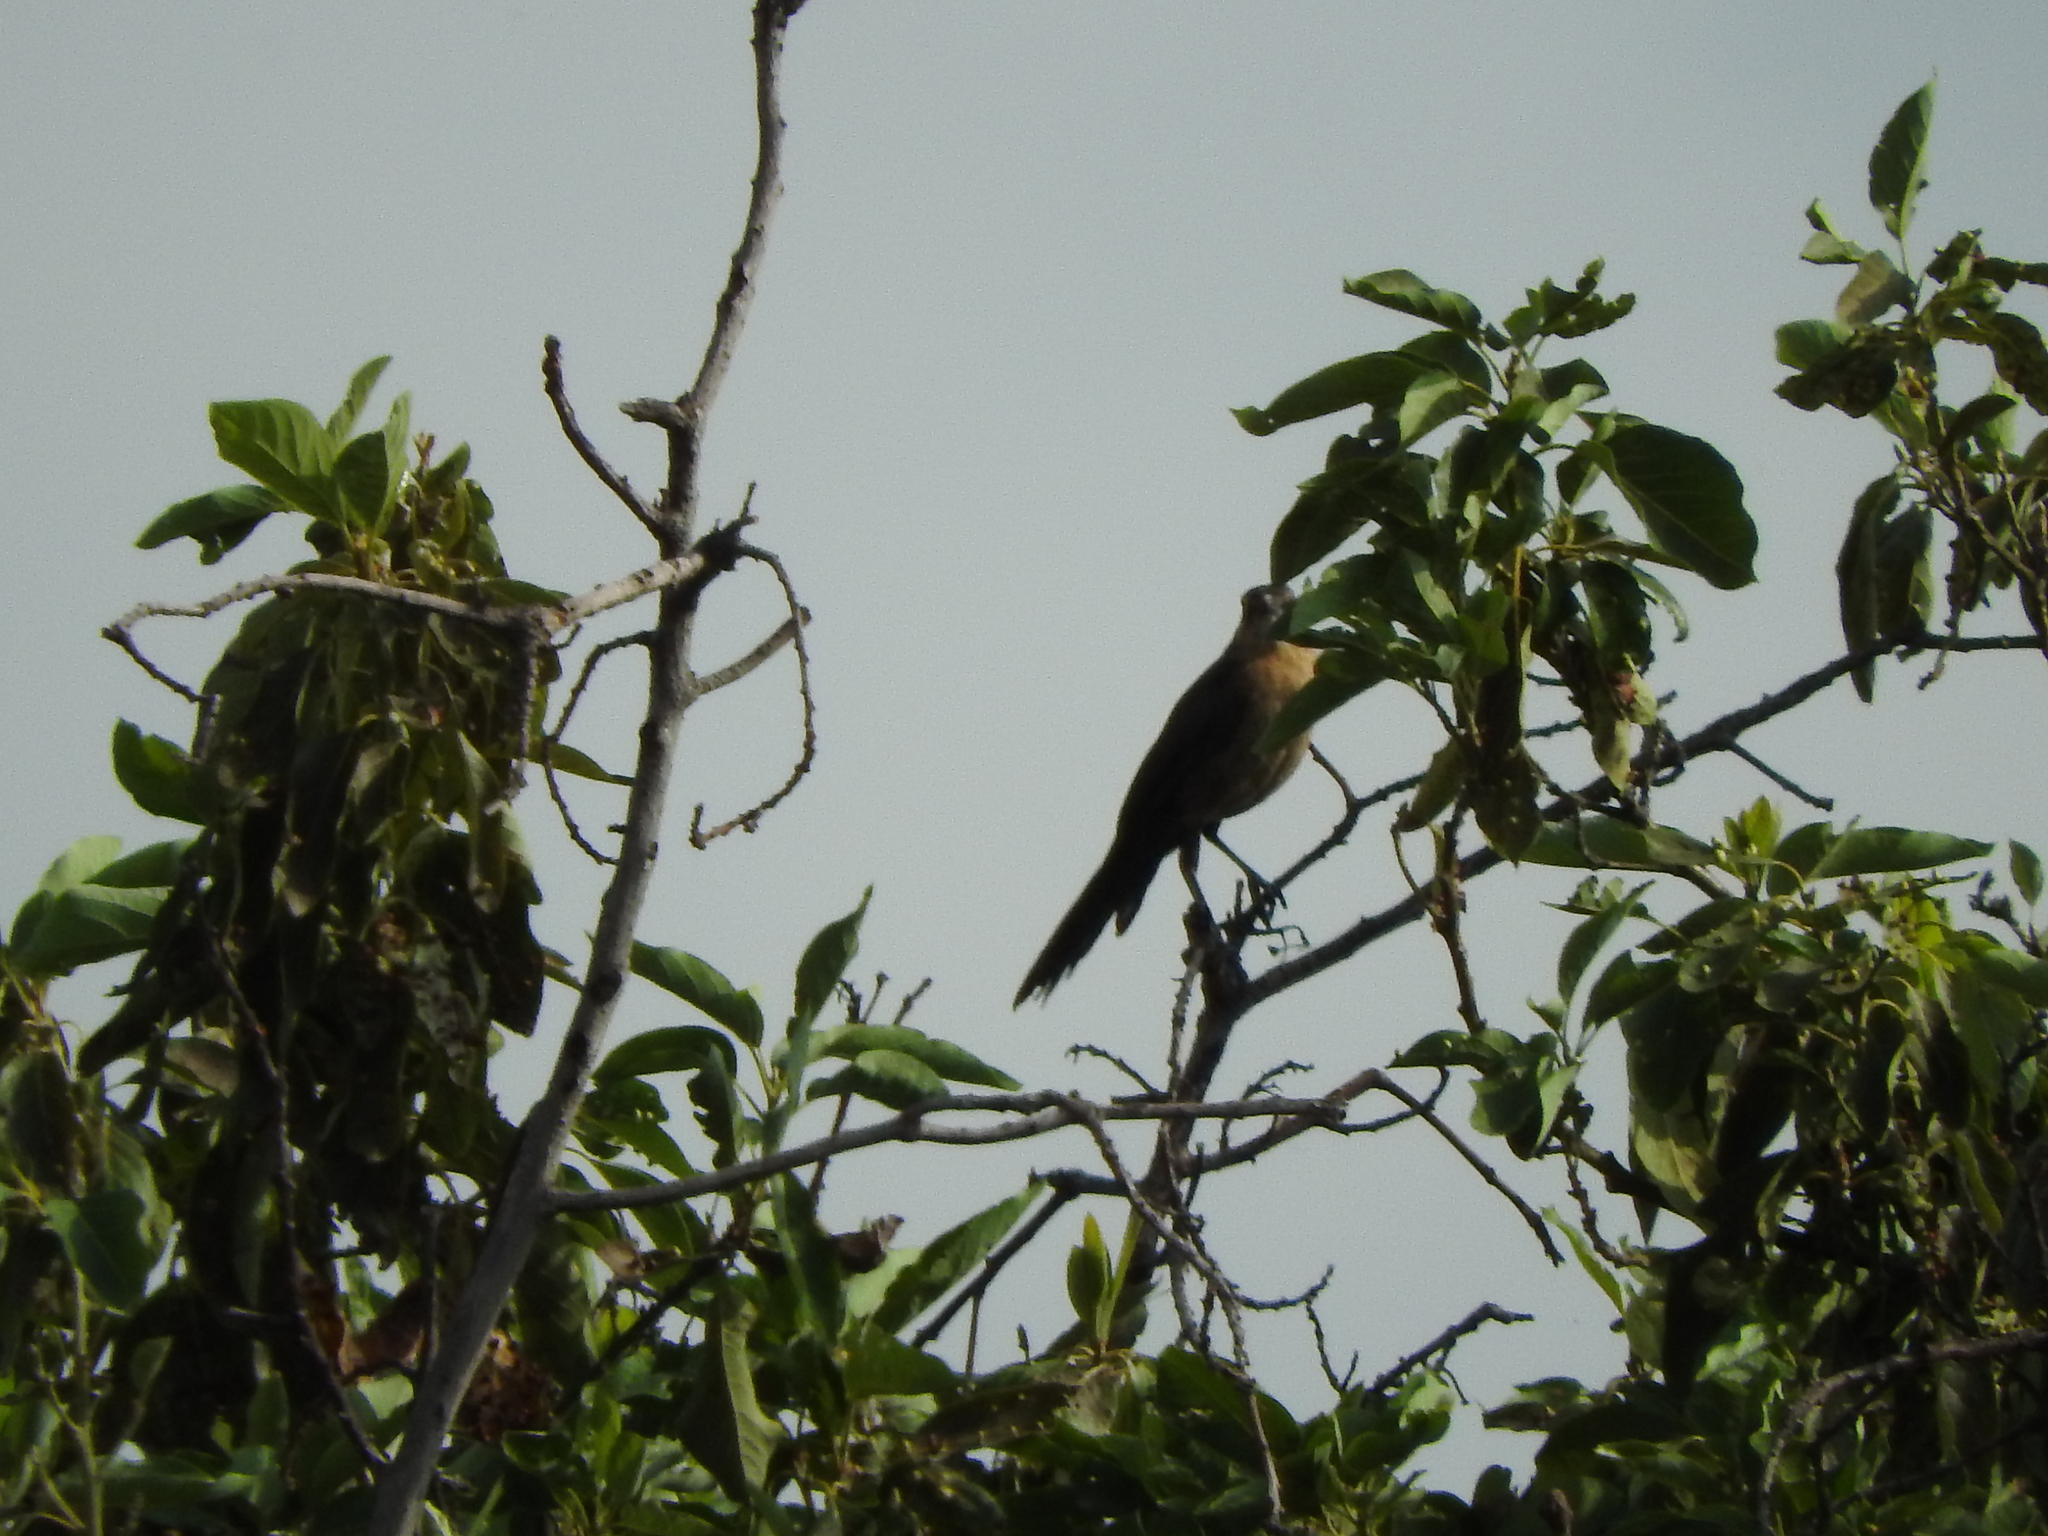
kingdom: Animalia
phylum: Chordata
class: Aves
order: Passeriformes
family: Icteridae
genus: Quiscalus
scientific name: Quiscalus mexicanus
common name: Great-tailed grackle
